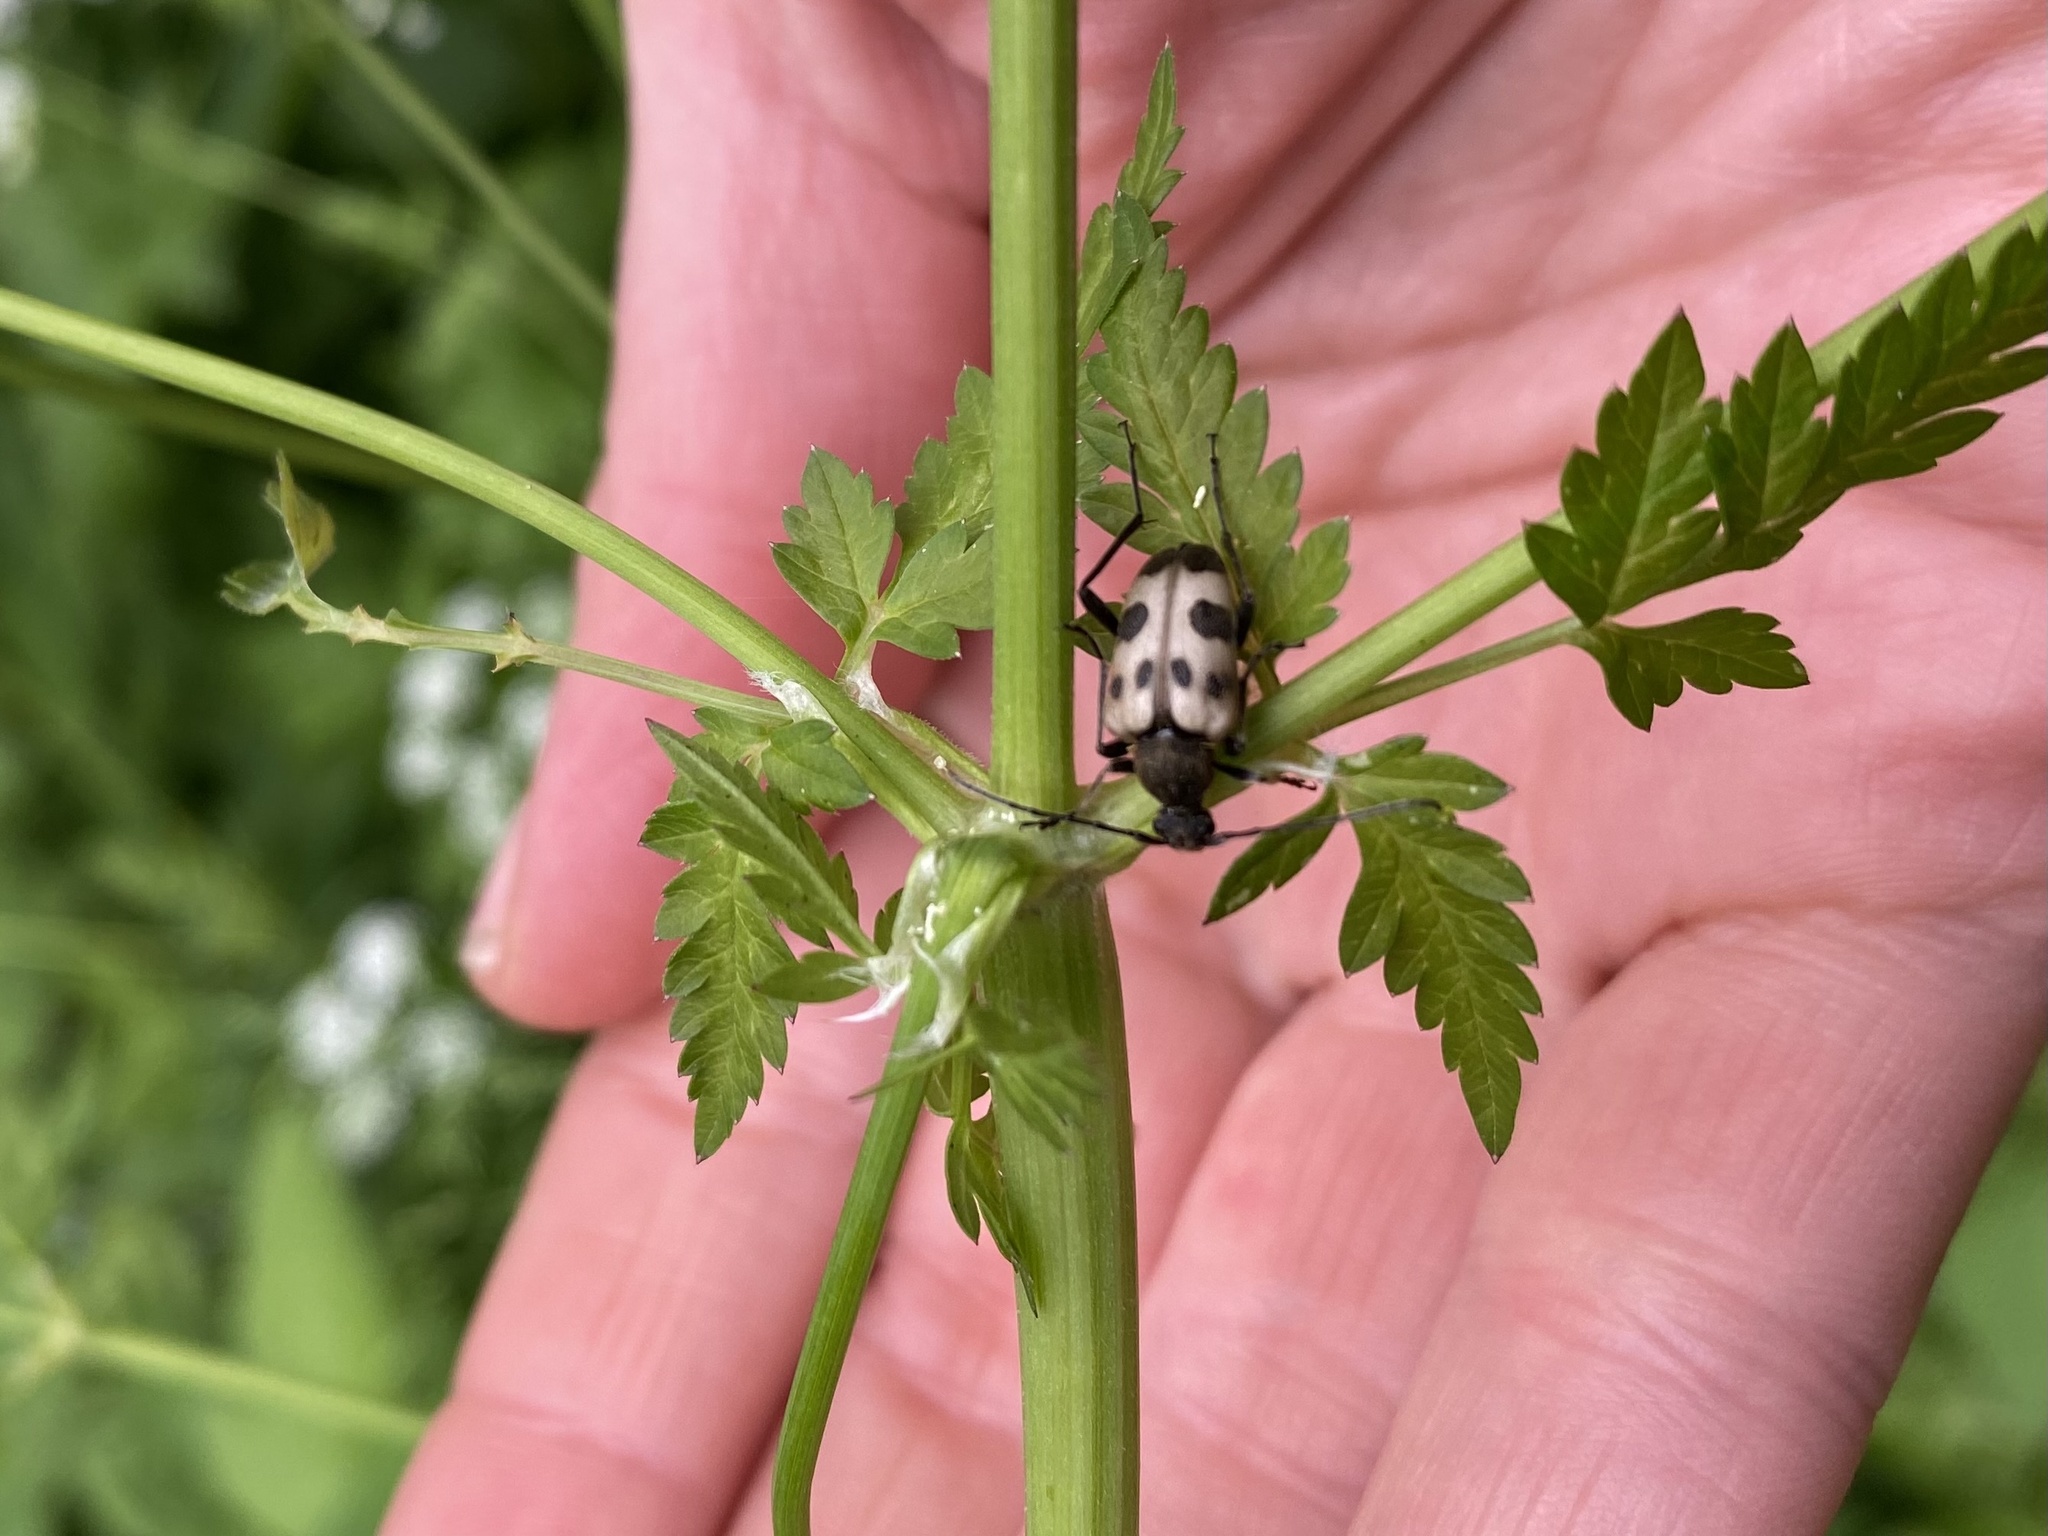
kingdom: Animalia
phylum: Arthropoda
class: Insecta
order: Coleoptera
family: Cerambycidae
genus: Pachytodes
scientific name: Pachytodes cerambyciformis
